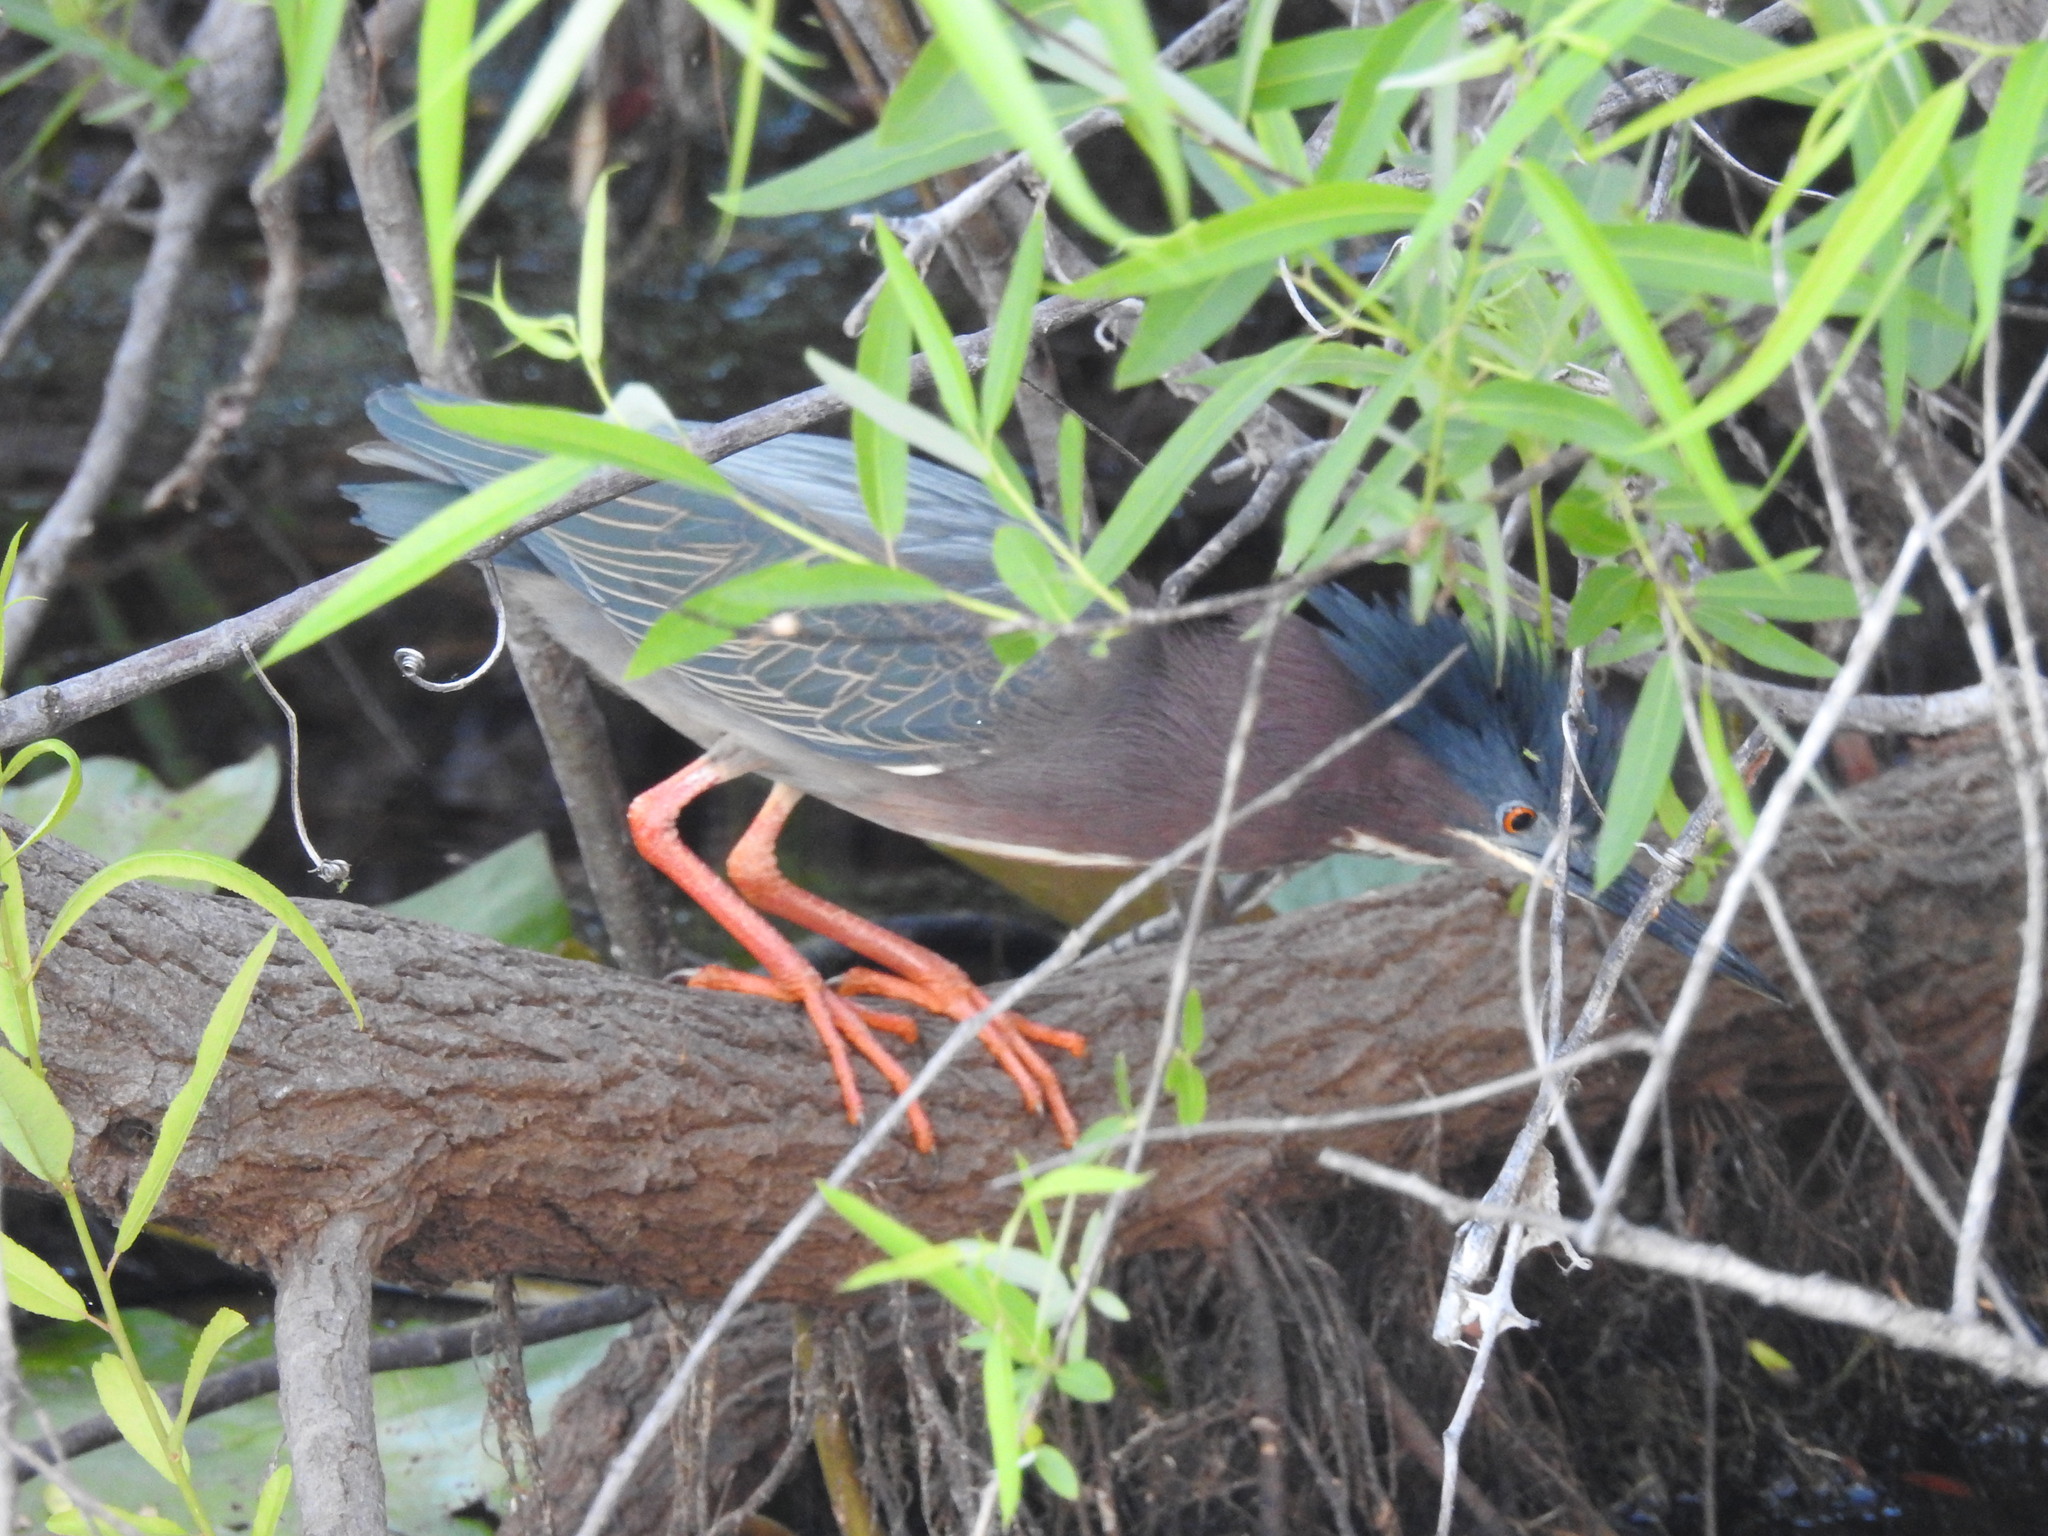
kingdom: Animalia
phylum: Chordata
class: Aves
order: Pelecaniformes
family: Ardeidae
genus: Butorides
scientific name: Butorides virescens
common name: Green heron
